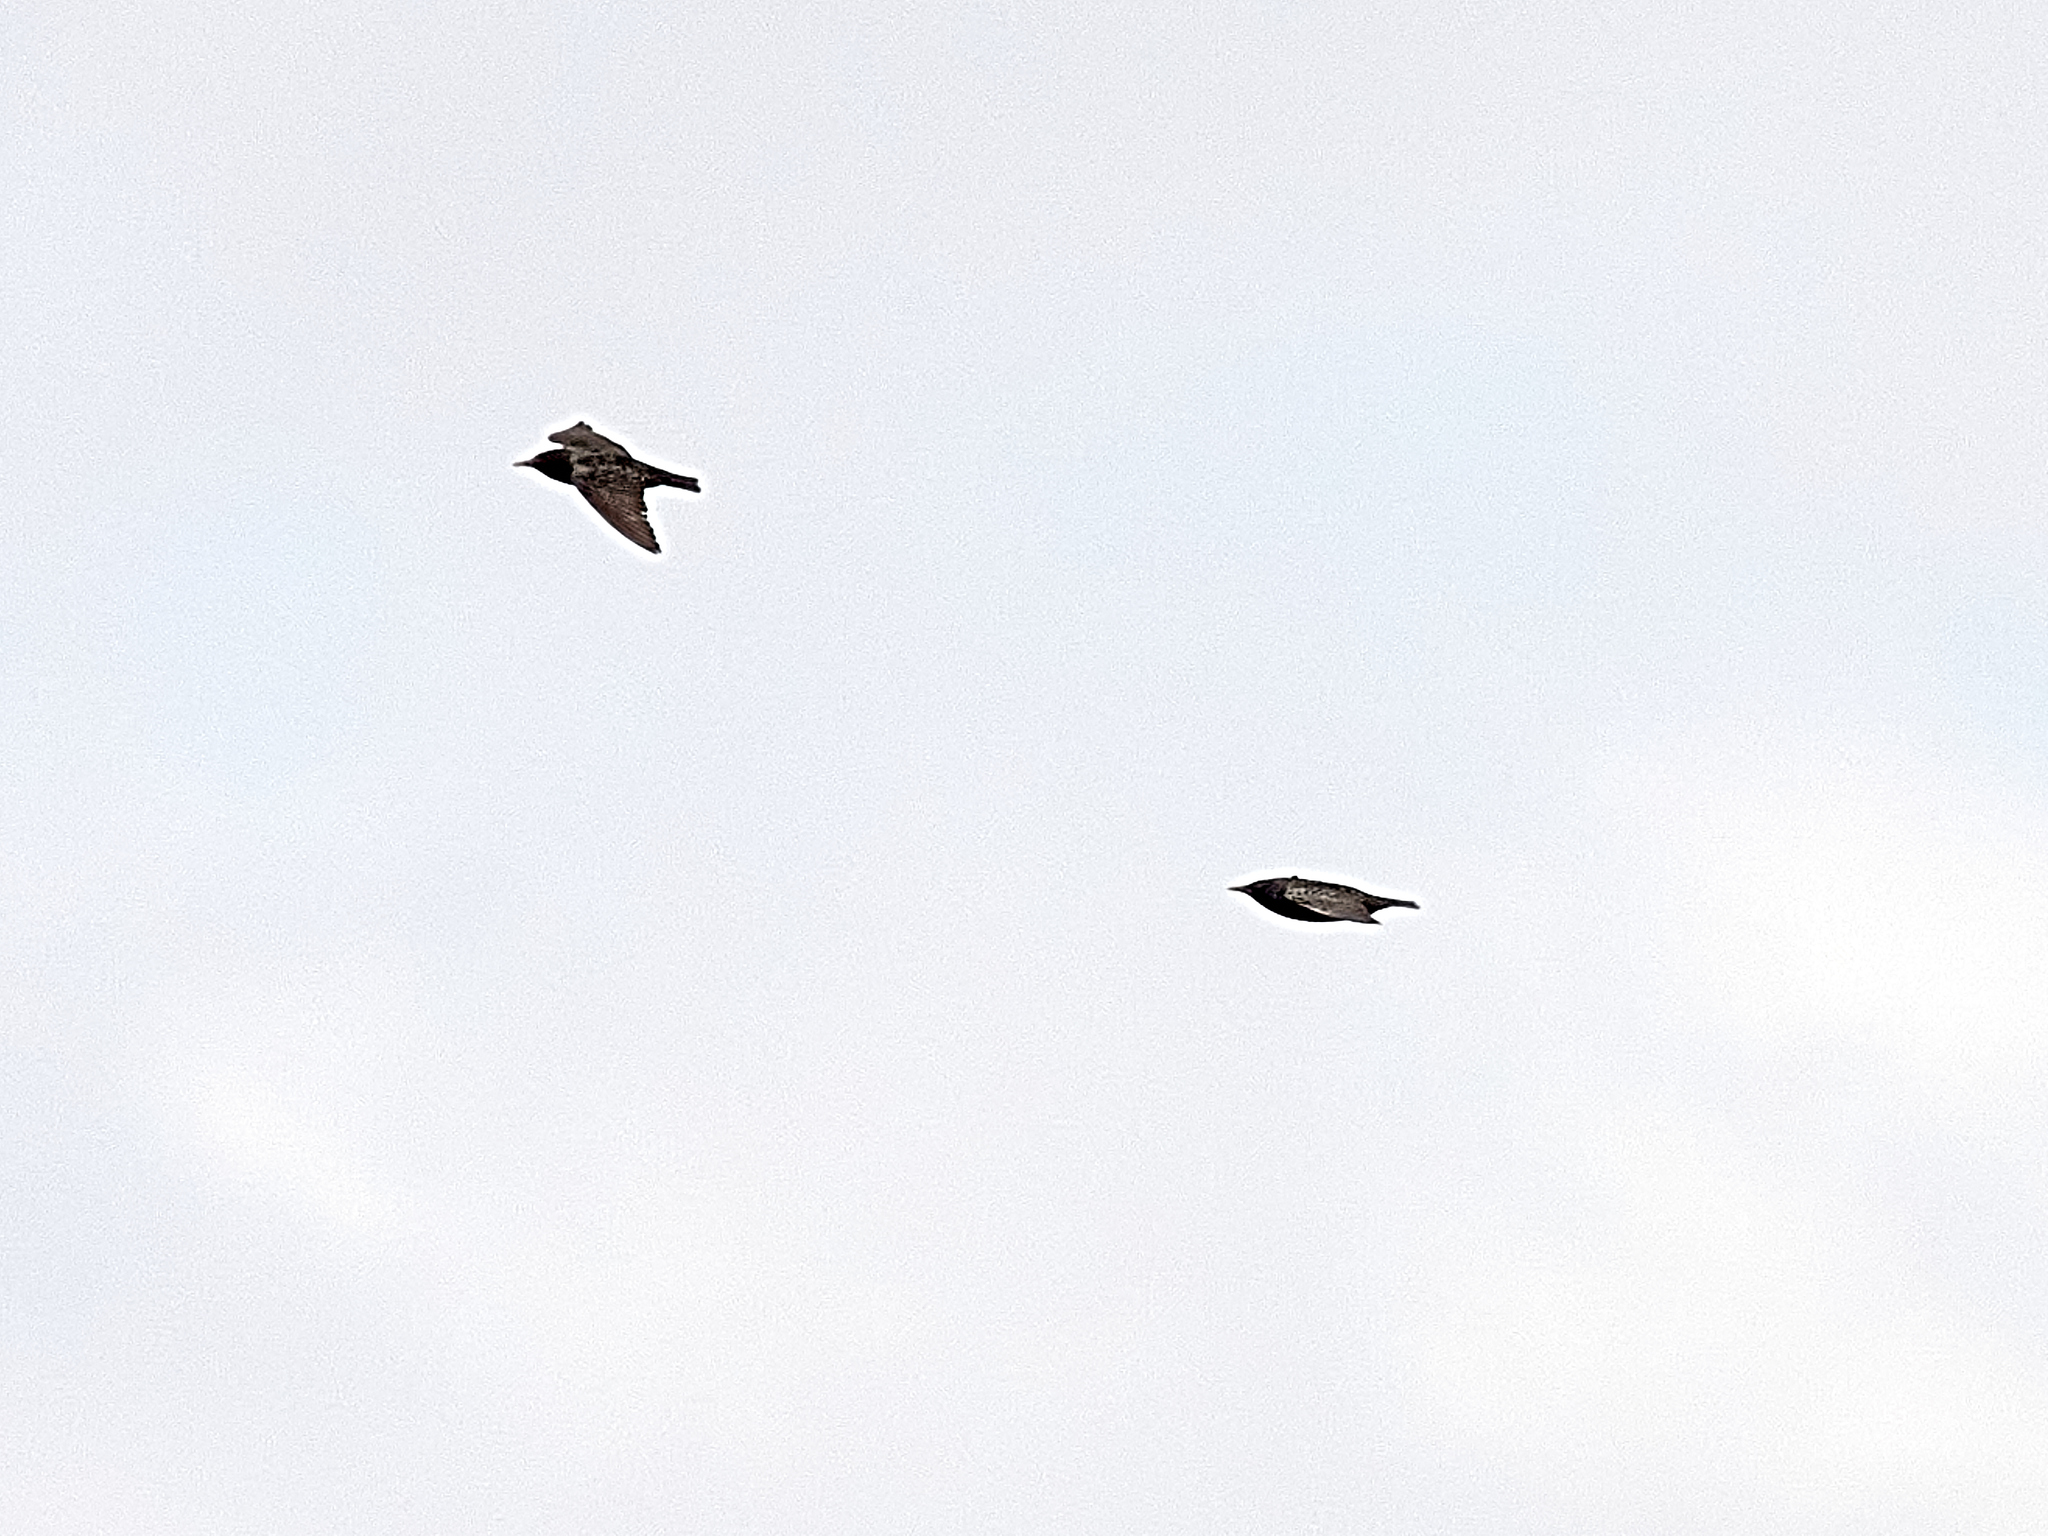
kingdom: Animalia
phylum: Chordata
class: Aves
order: Passeriformes
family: Sturnidae
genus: Sturnus
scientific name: Sturnus vulgaris
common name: Common starling
